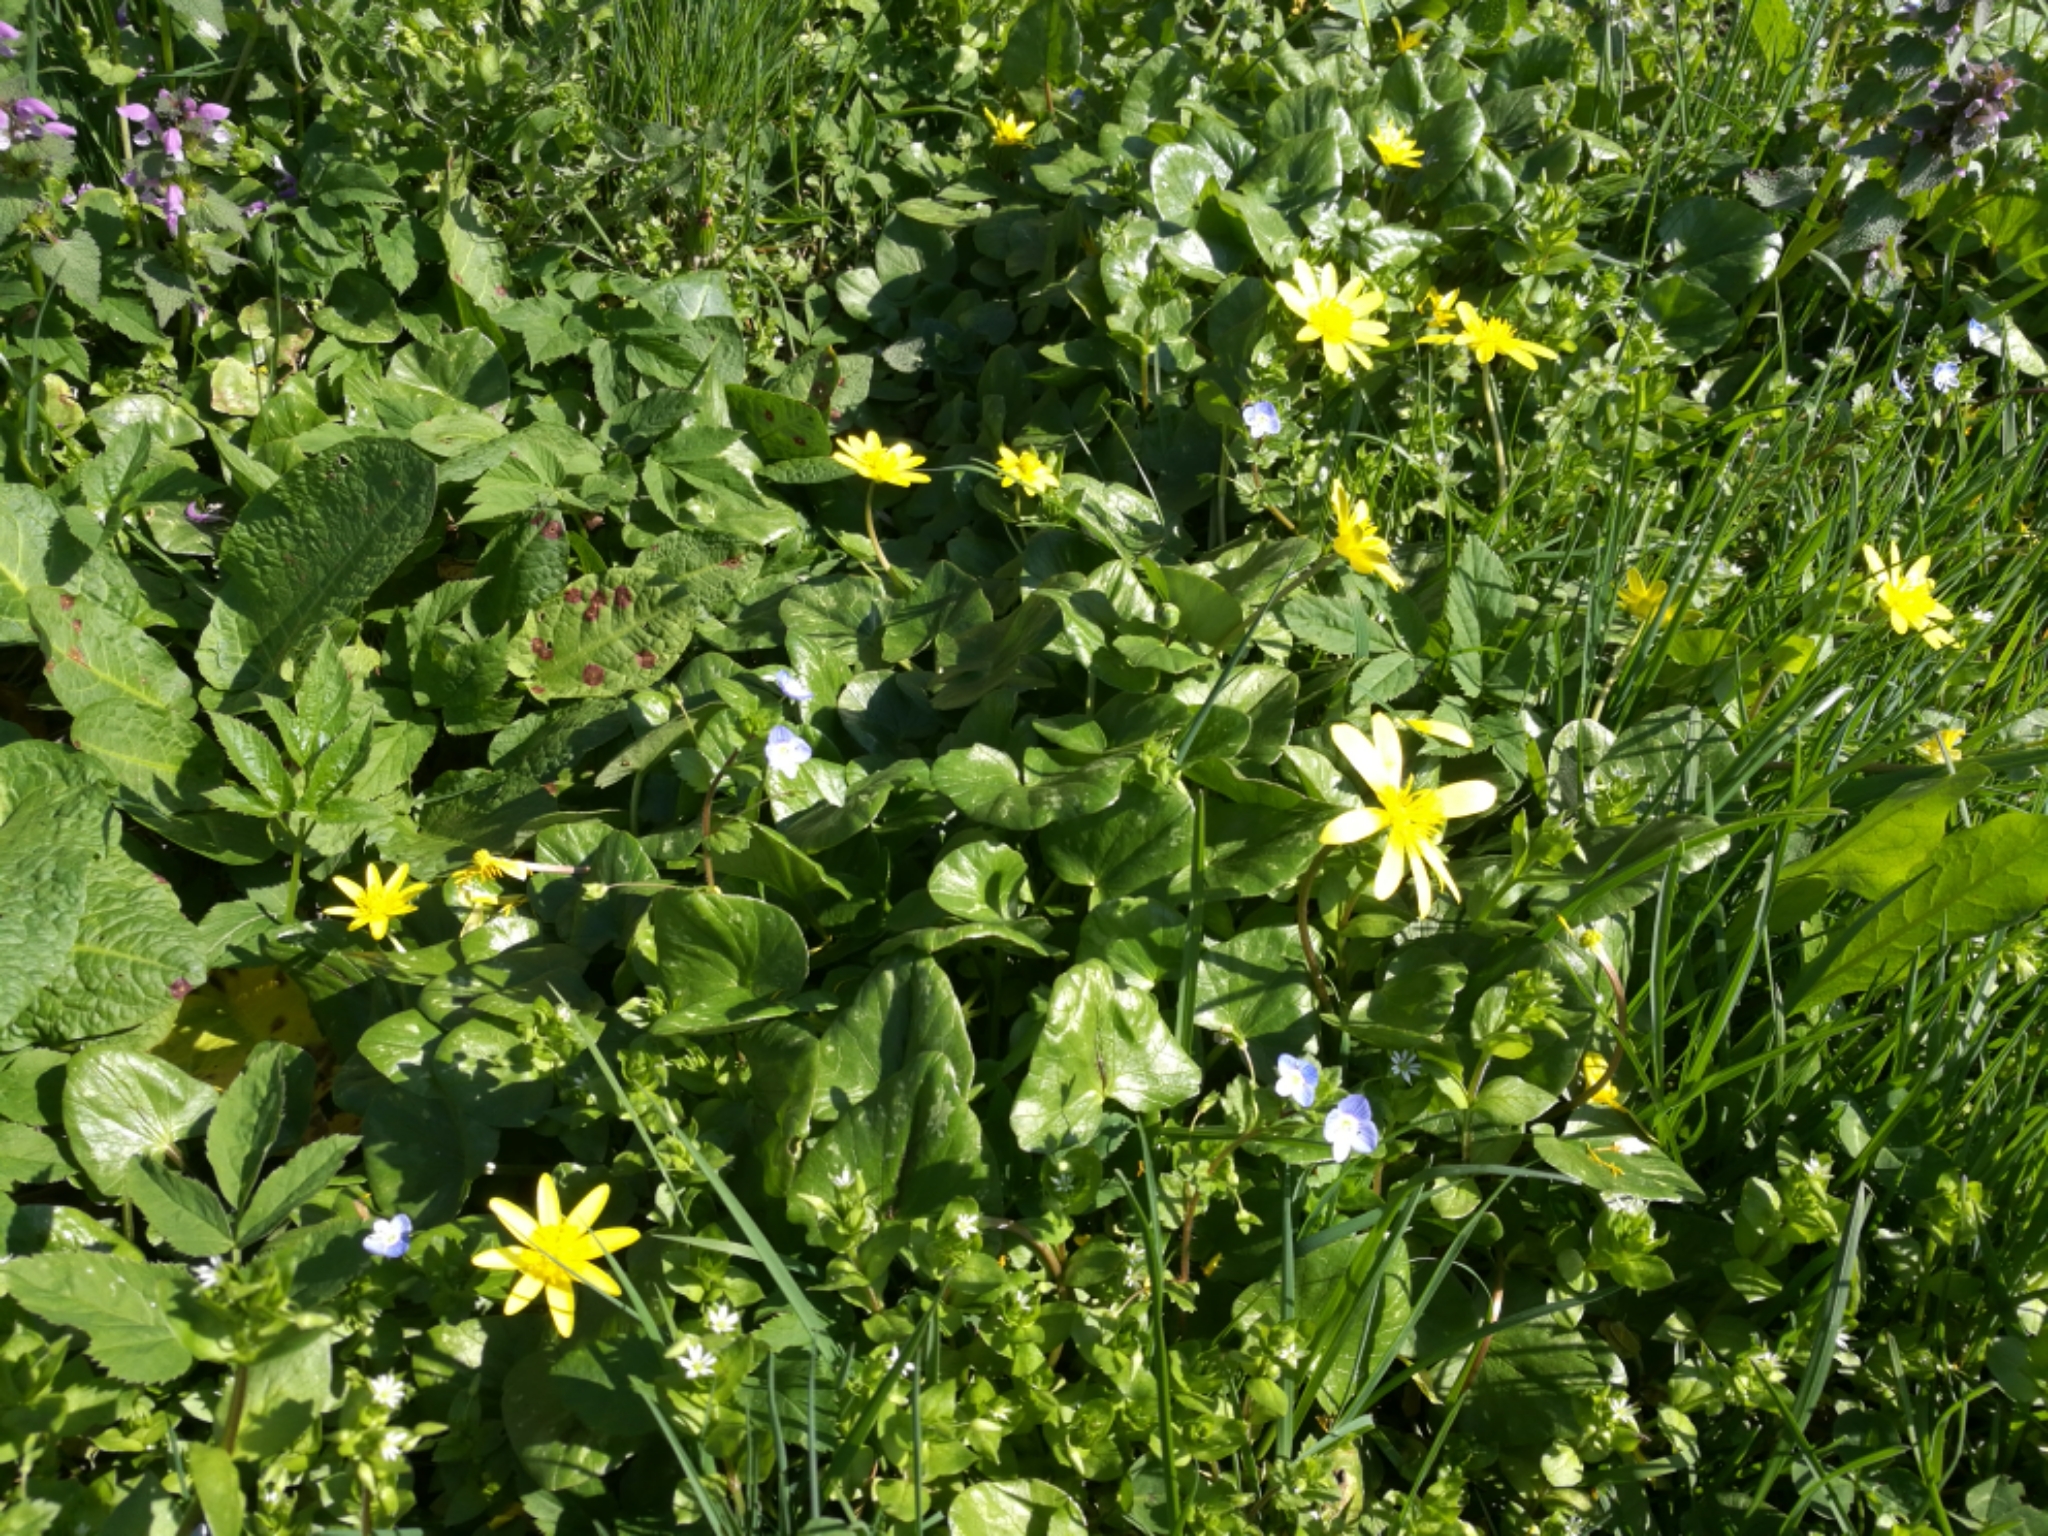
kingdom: Plantae
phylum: Tracheophyta
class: Magnoliopsida
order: Ranunculales
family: Ranunculaceae
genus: Ficaria
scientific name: Ficaria verna
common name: Lesser celandine
